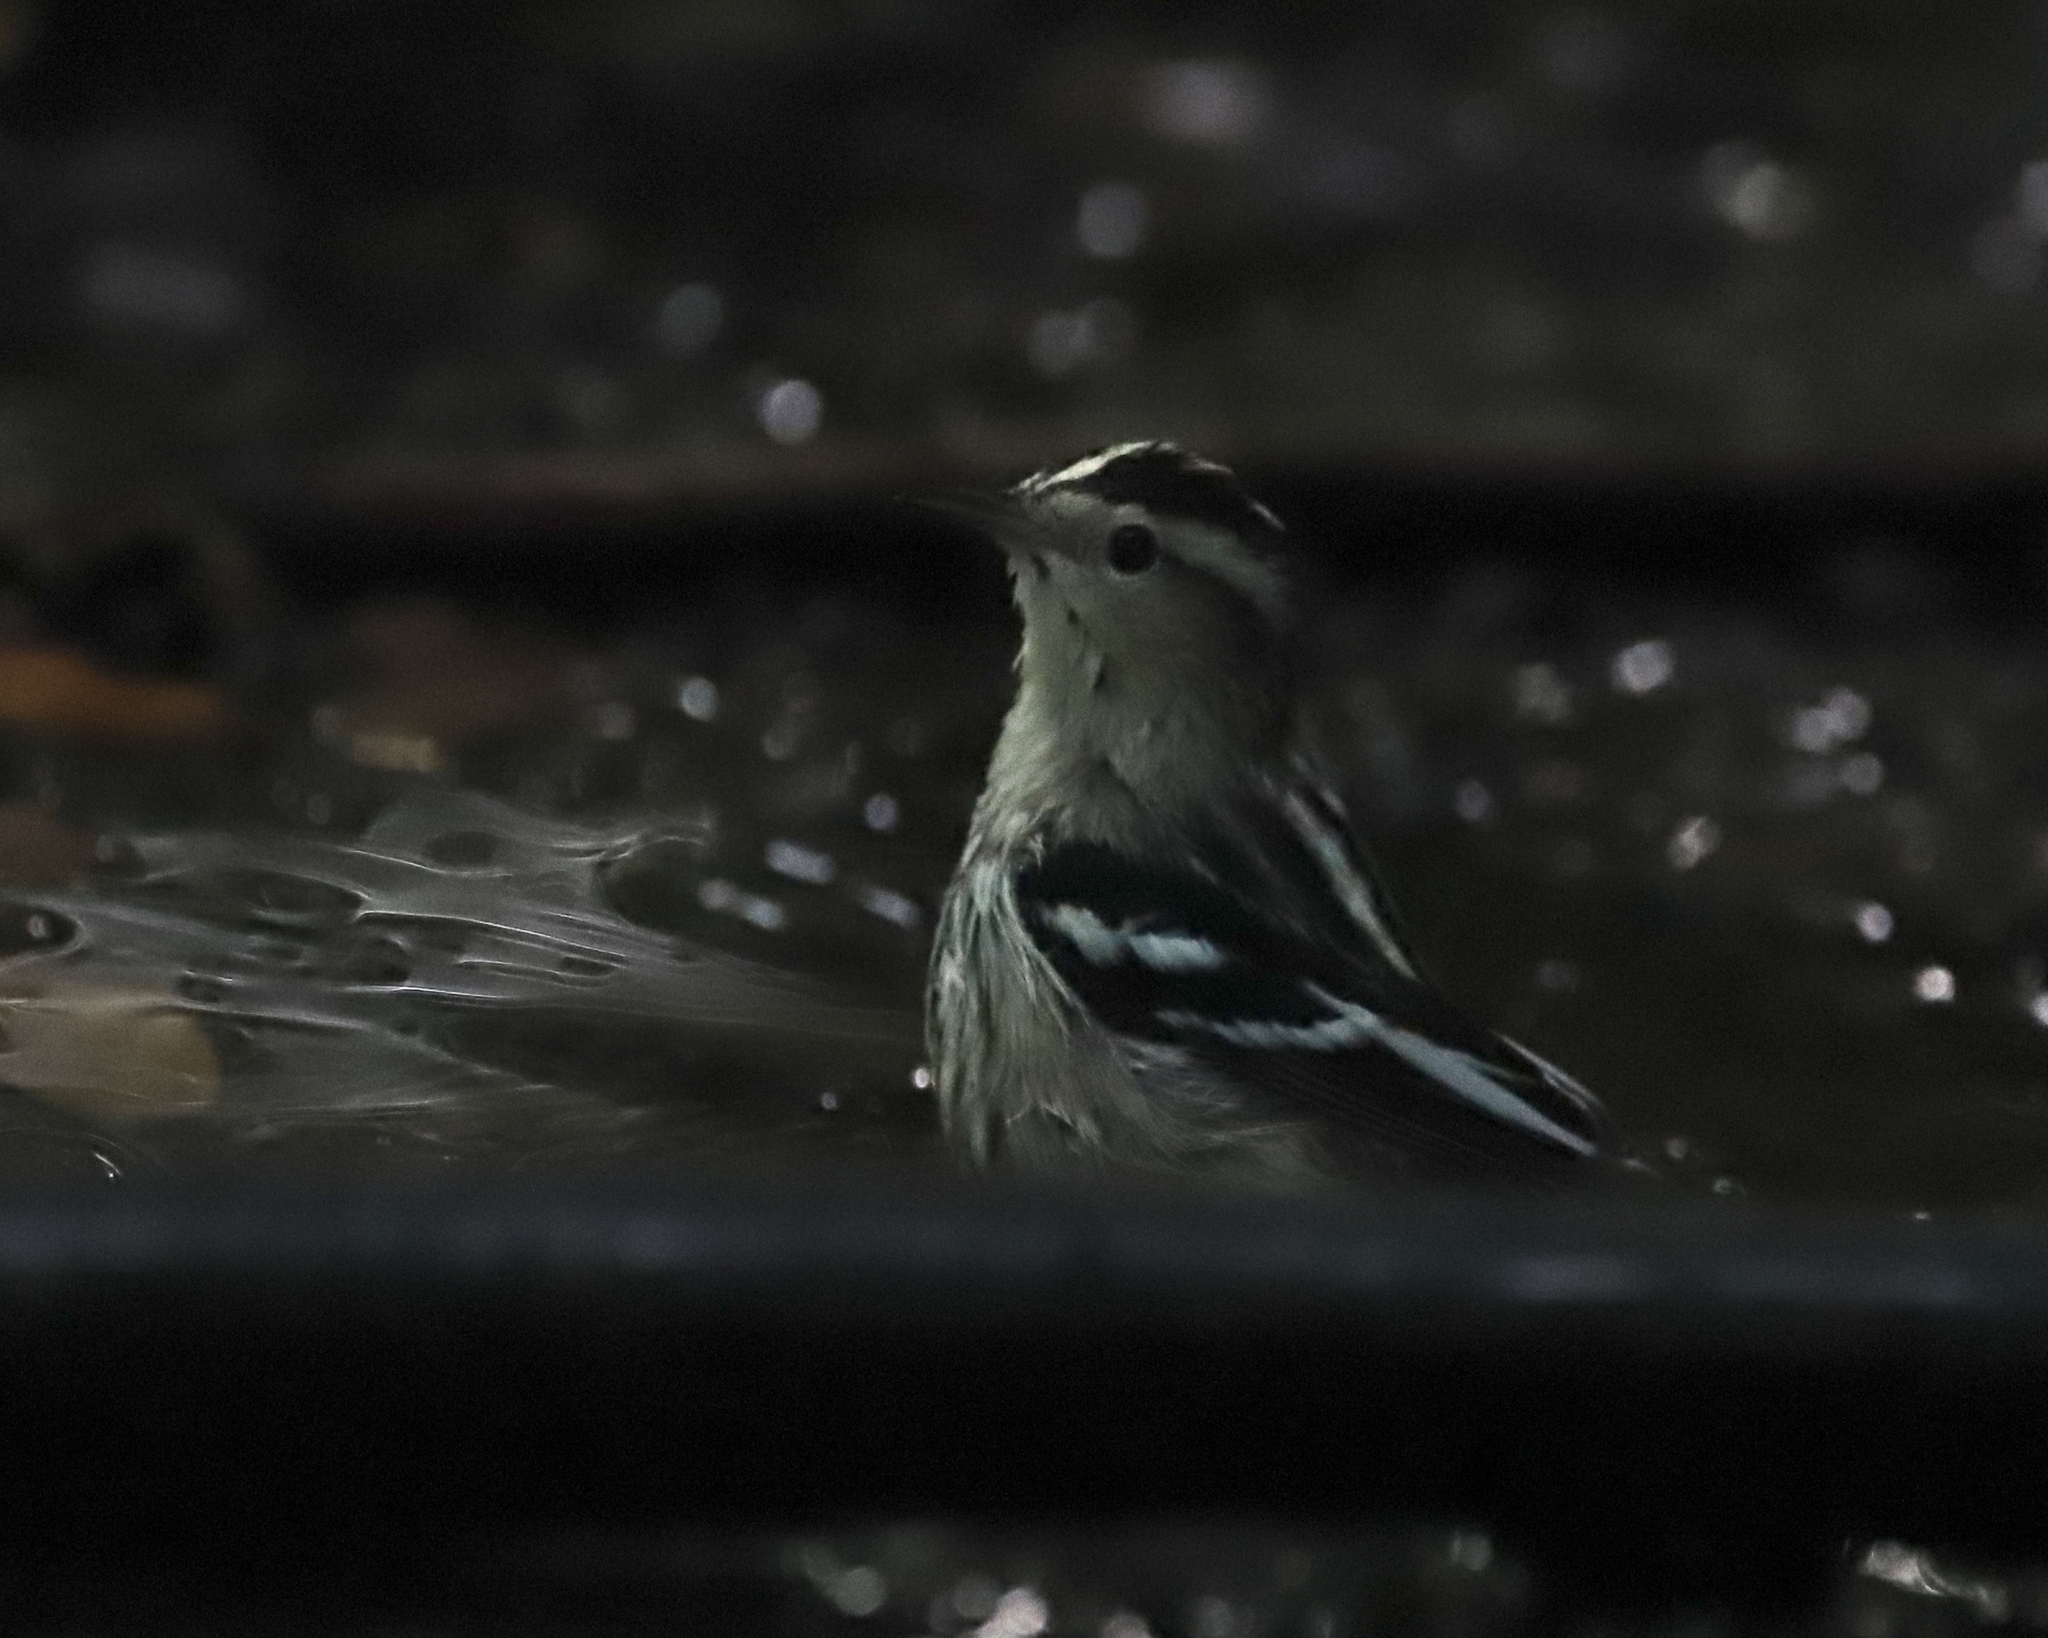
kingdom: Animalia
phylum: Chordata
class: Aves
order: Passeriformes
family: Parulidae
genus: Mniotilta
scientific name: Mniotilta varia
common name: Black-and-white warbler
